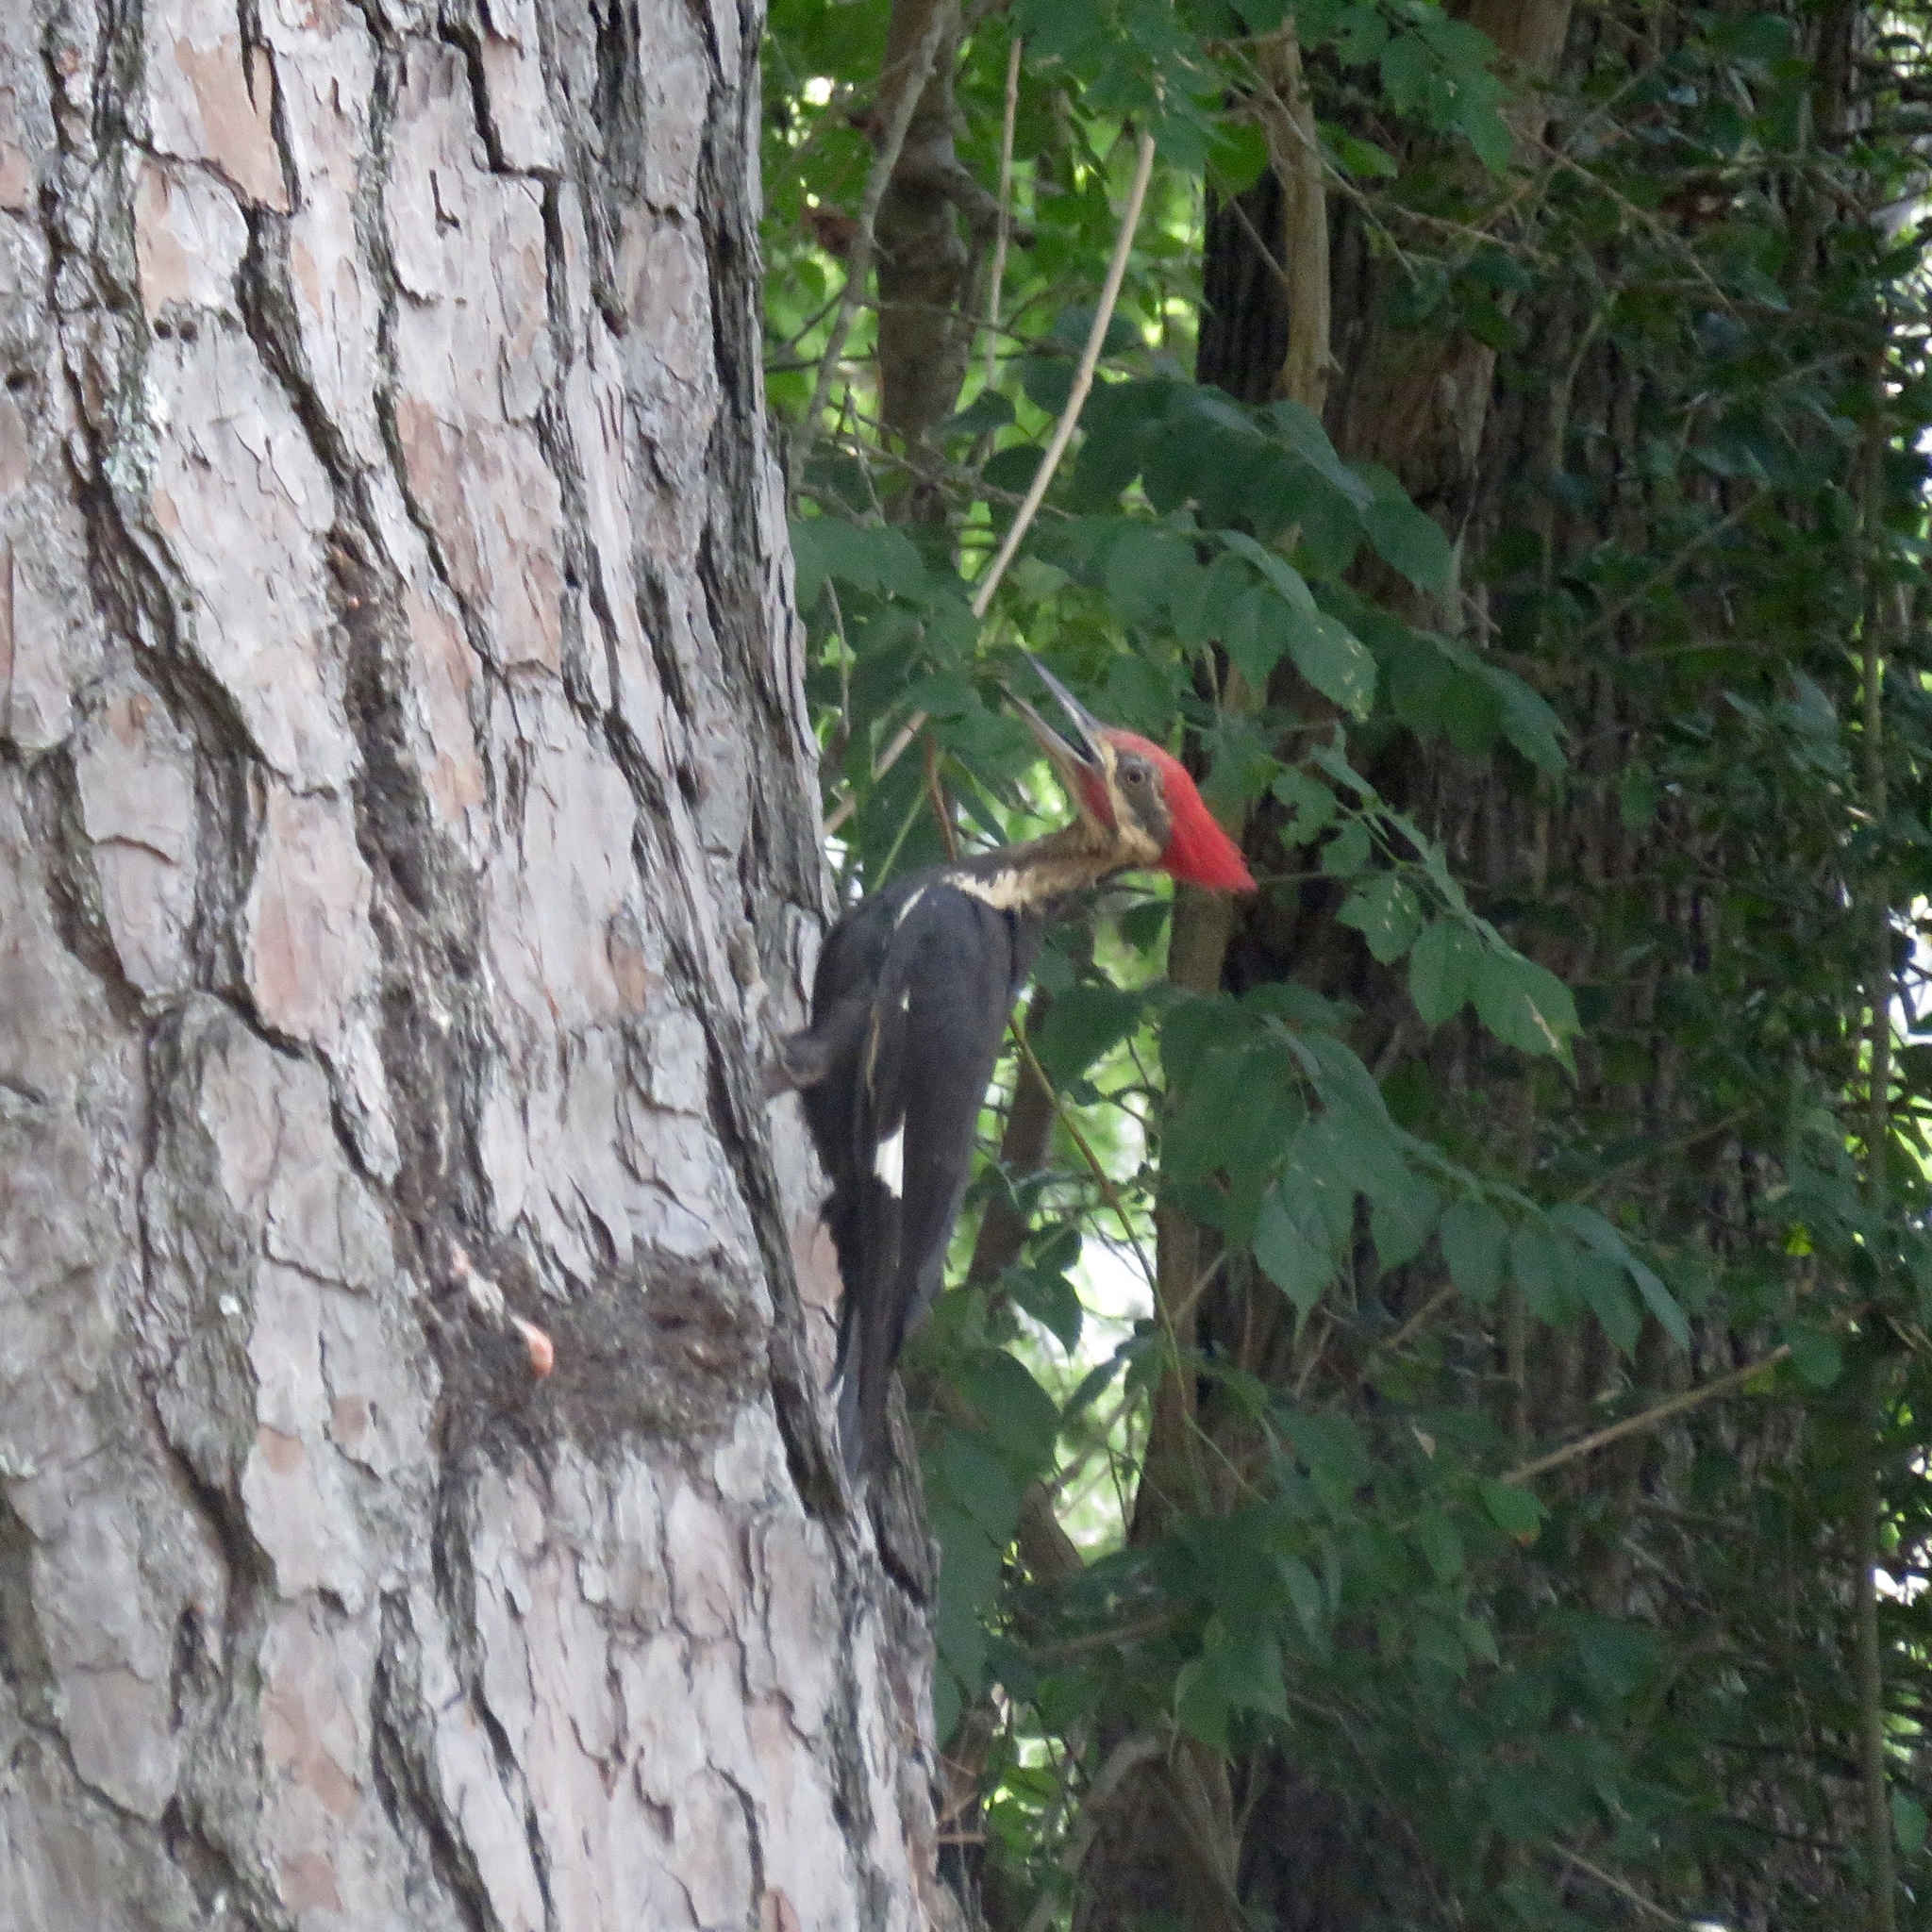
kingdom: Animalia
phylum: Chordata
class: Aves
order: Piciformes
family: Picidae
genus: Dryocopus
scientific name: Dryocopus pileatus
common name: Pileated woodpecker
